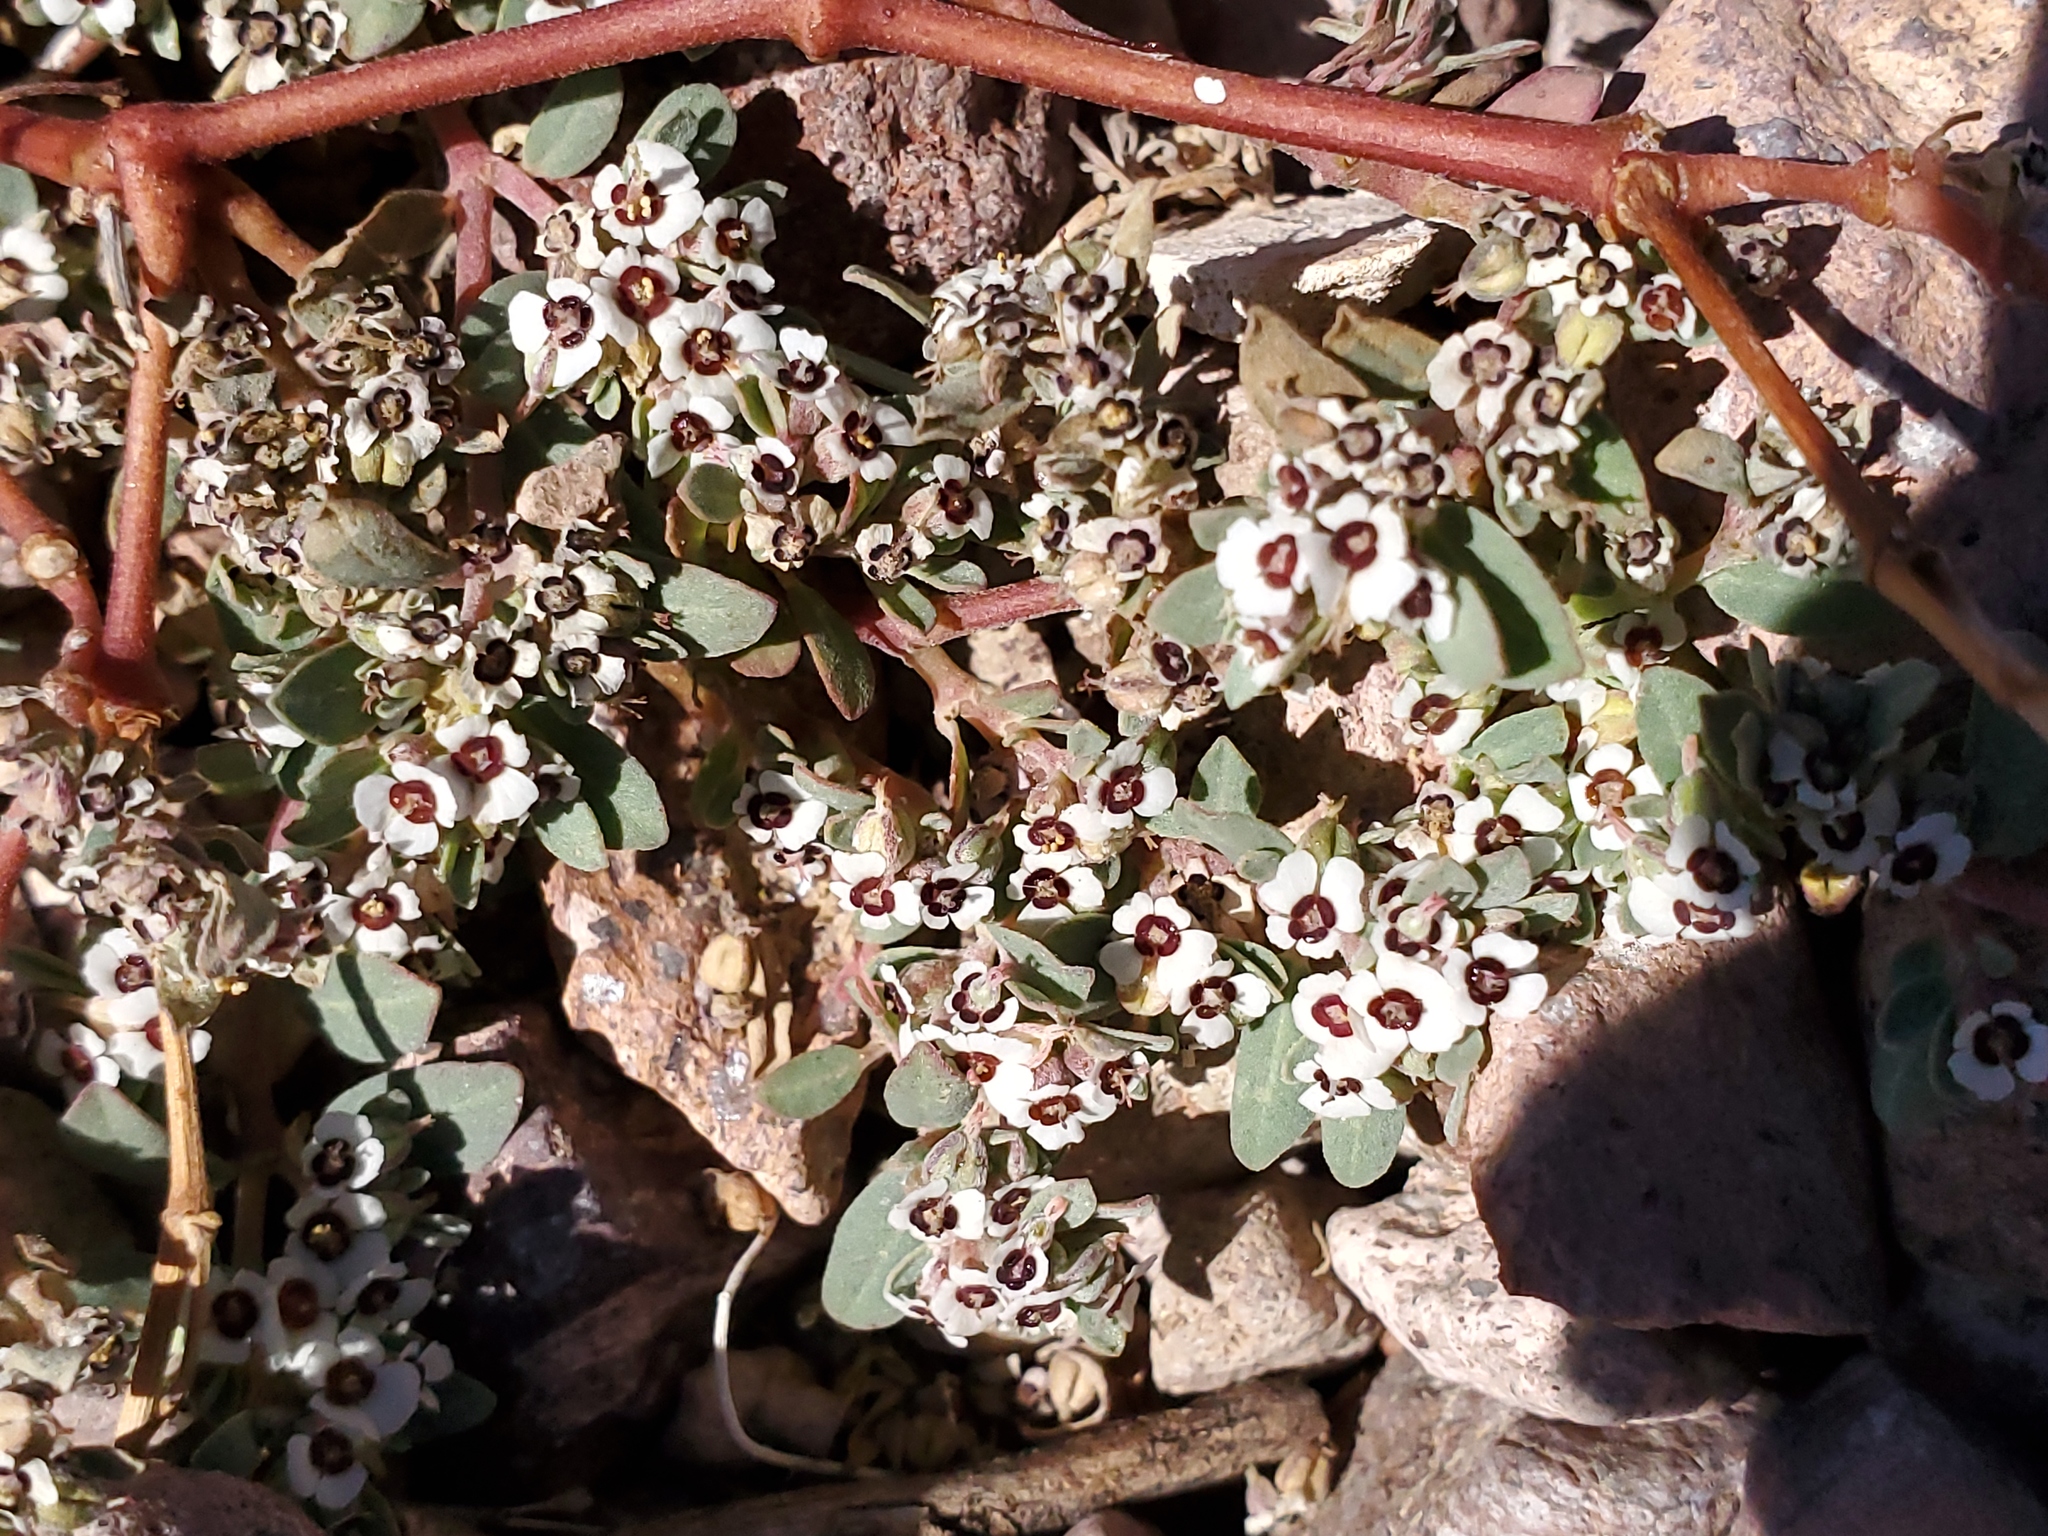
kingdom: Plantae
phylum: Tracheophyta
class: Magnoliopsida
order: Malpighiales
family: Euphorbiaceae
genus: Euphorbia
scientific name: Euphorbia pediculifera
